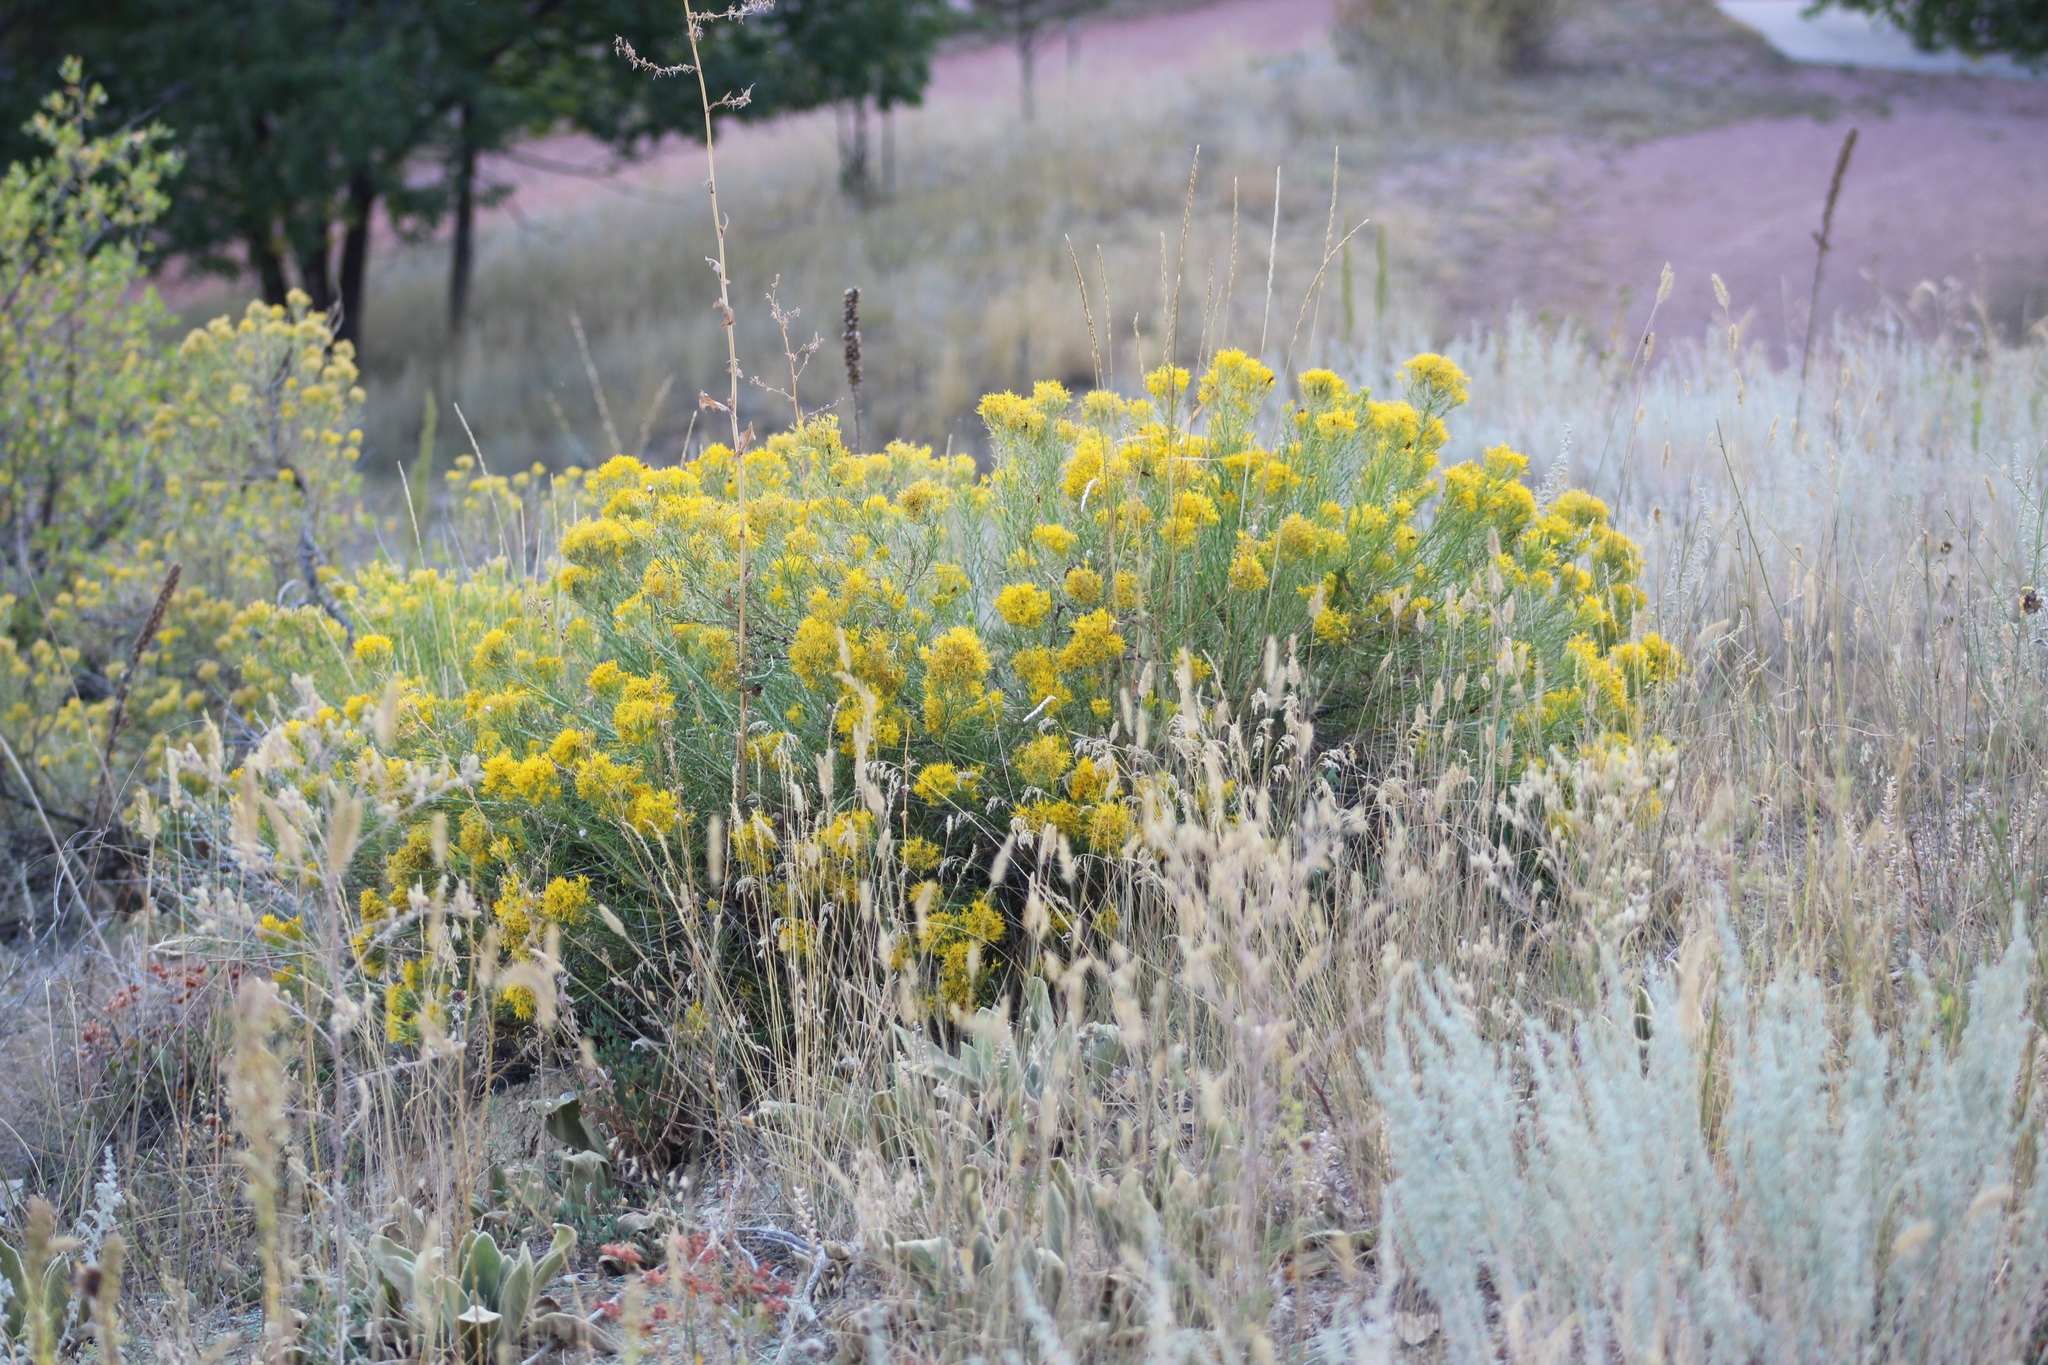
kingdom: Plantae
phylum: Tracheophyta
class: Magnoliopsida
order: Asterales
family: Asteraceae
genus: Ericameria
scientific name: Ericameria nauseosa
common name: Rubber rabbitbrush
